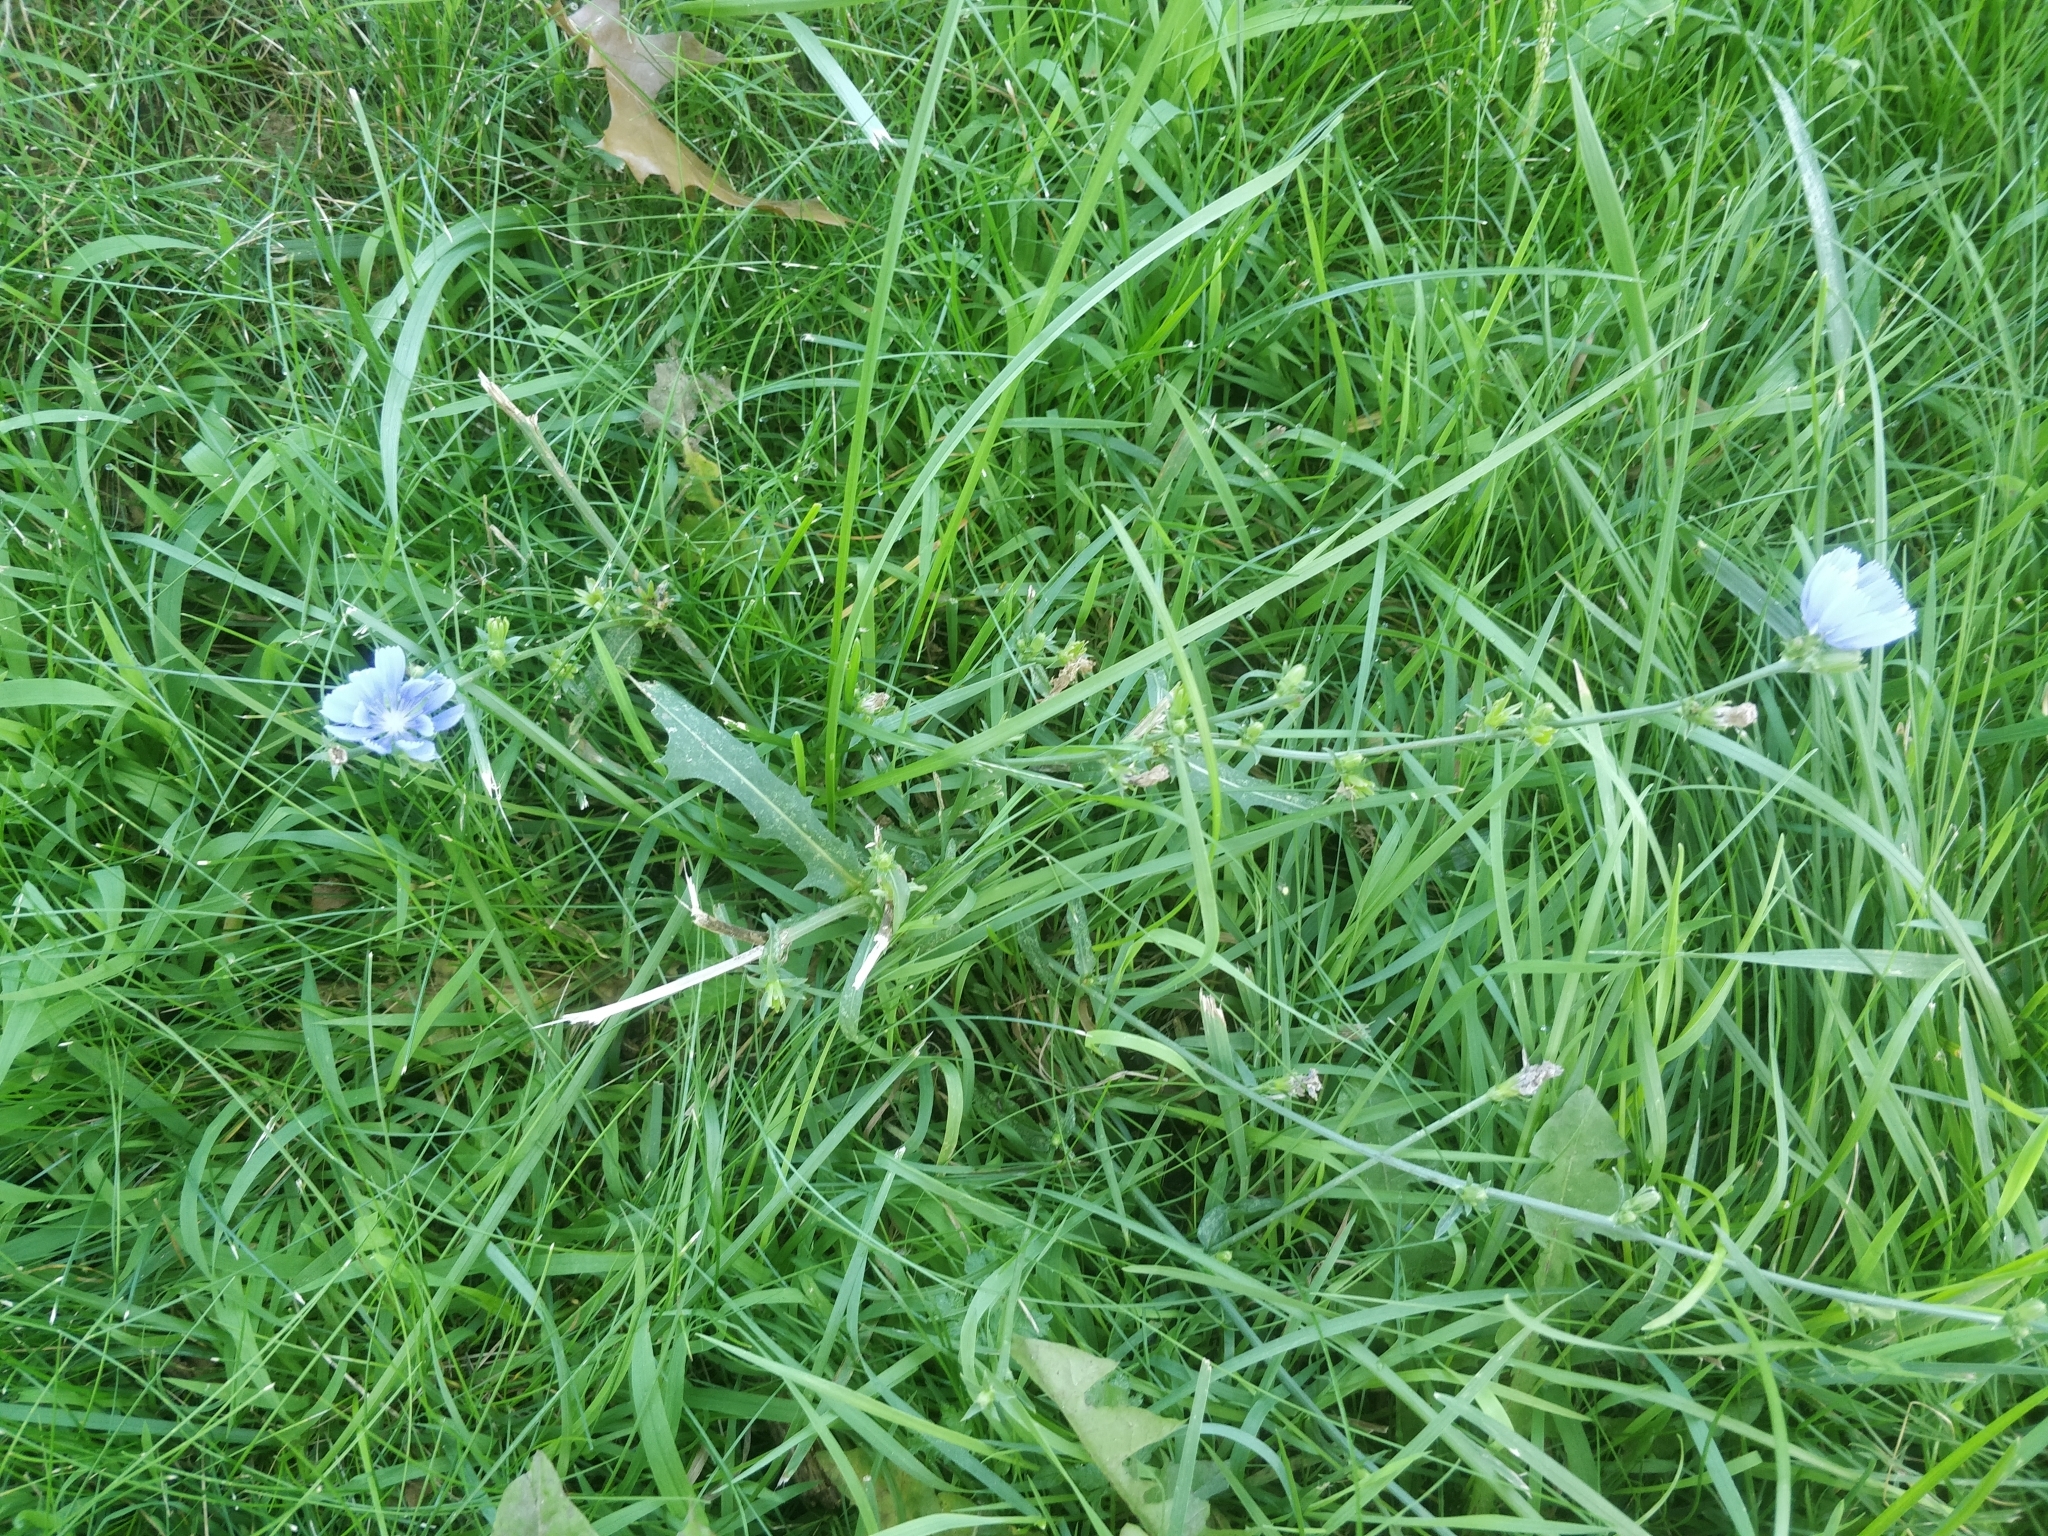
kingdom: Plantae
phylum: Tracheophyta
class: Magnoliopsida
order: Asterales
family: Asteraceae
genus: Cichorium
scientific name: Cichorium intybus
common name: Chicory
